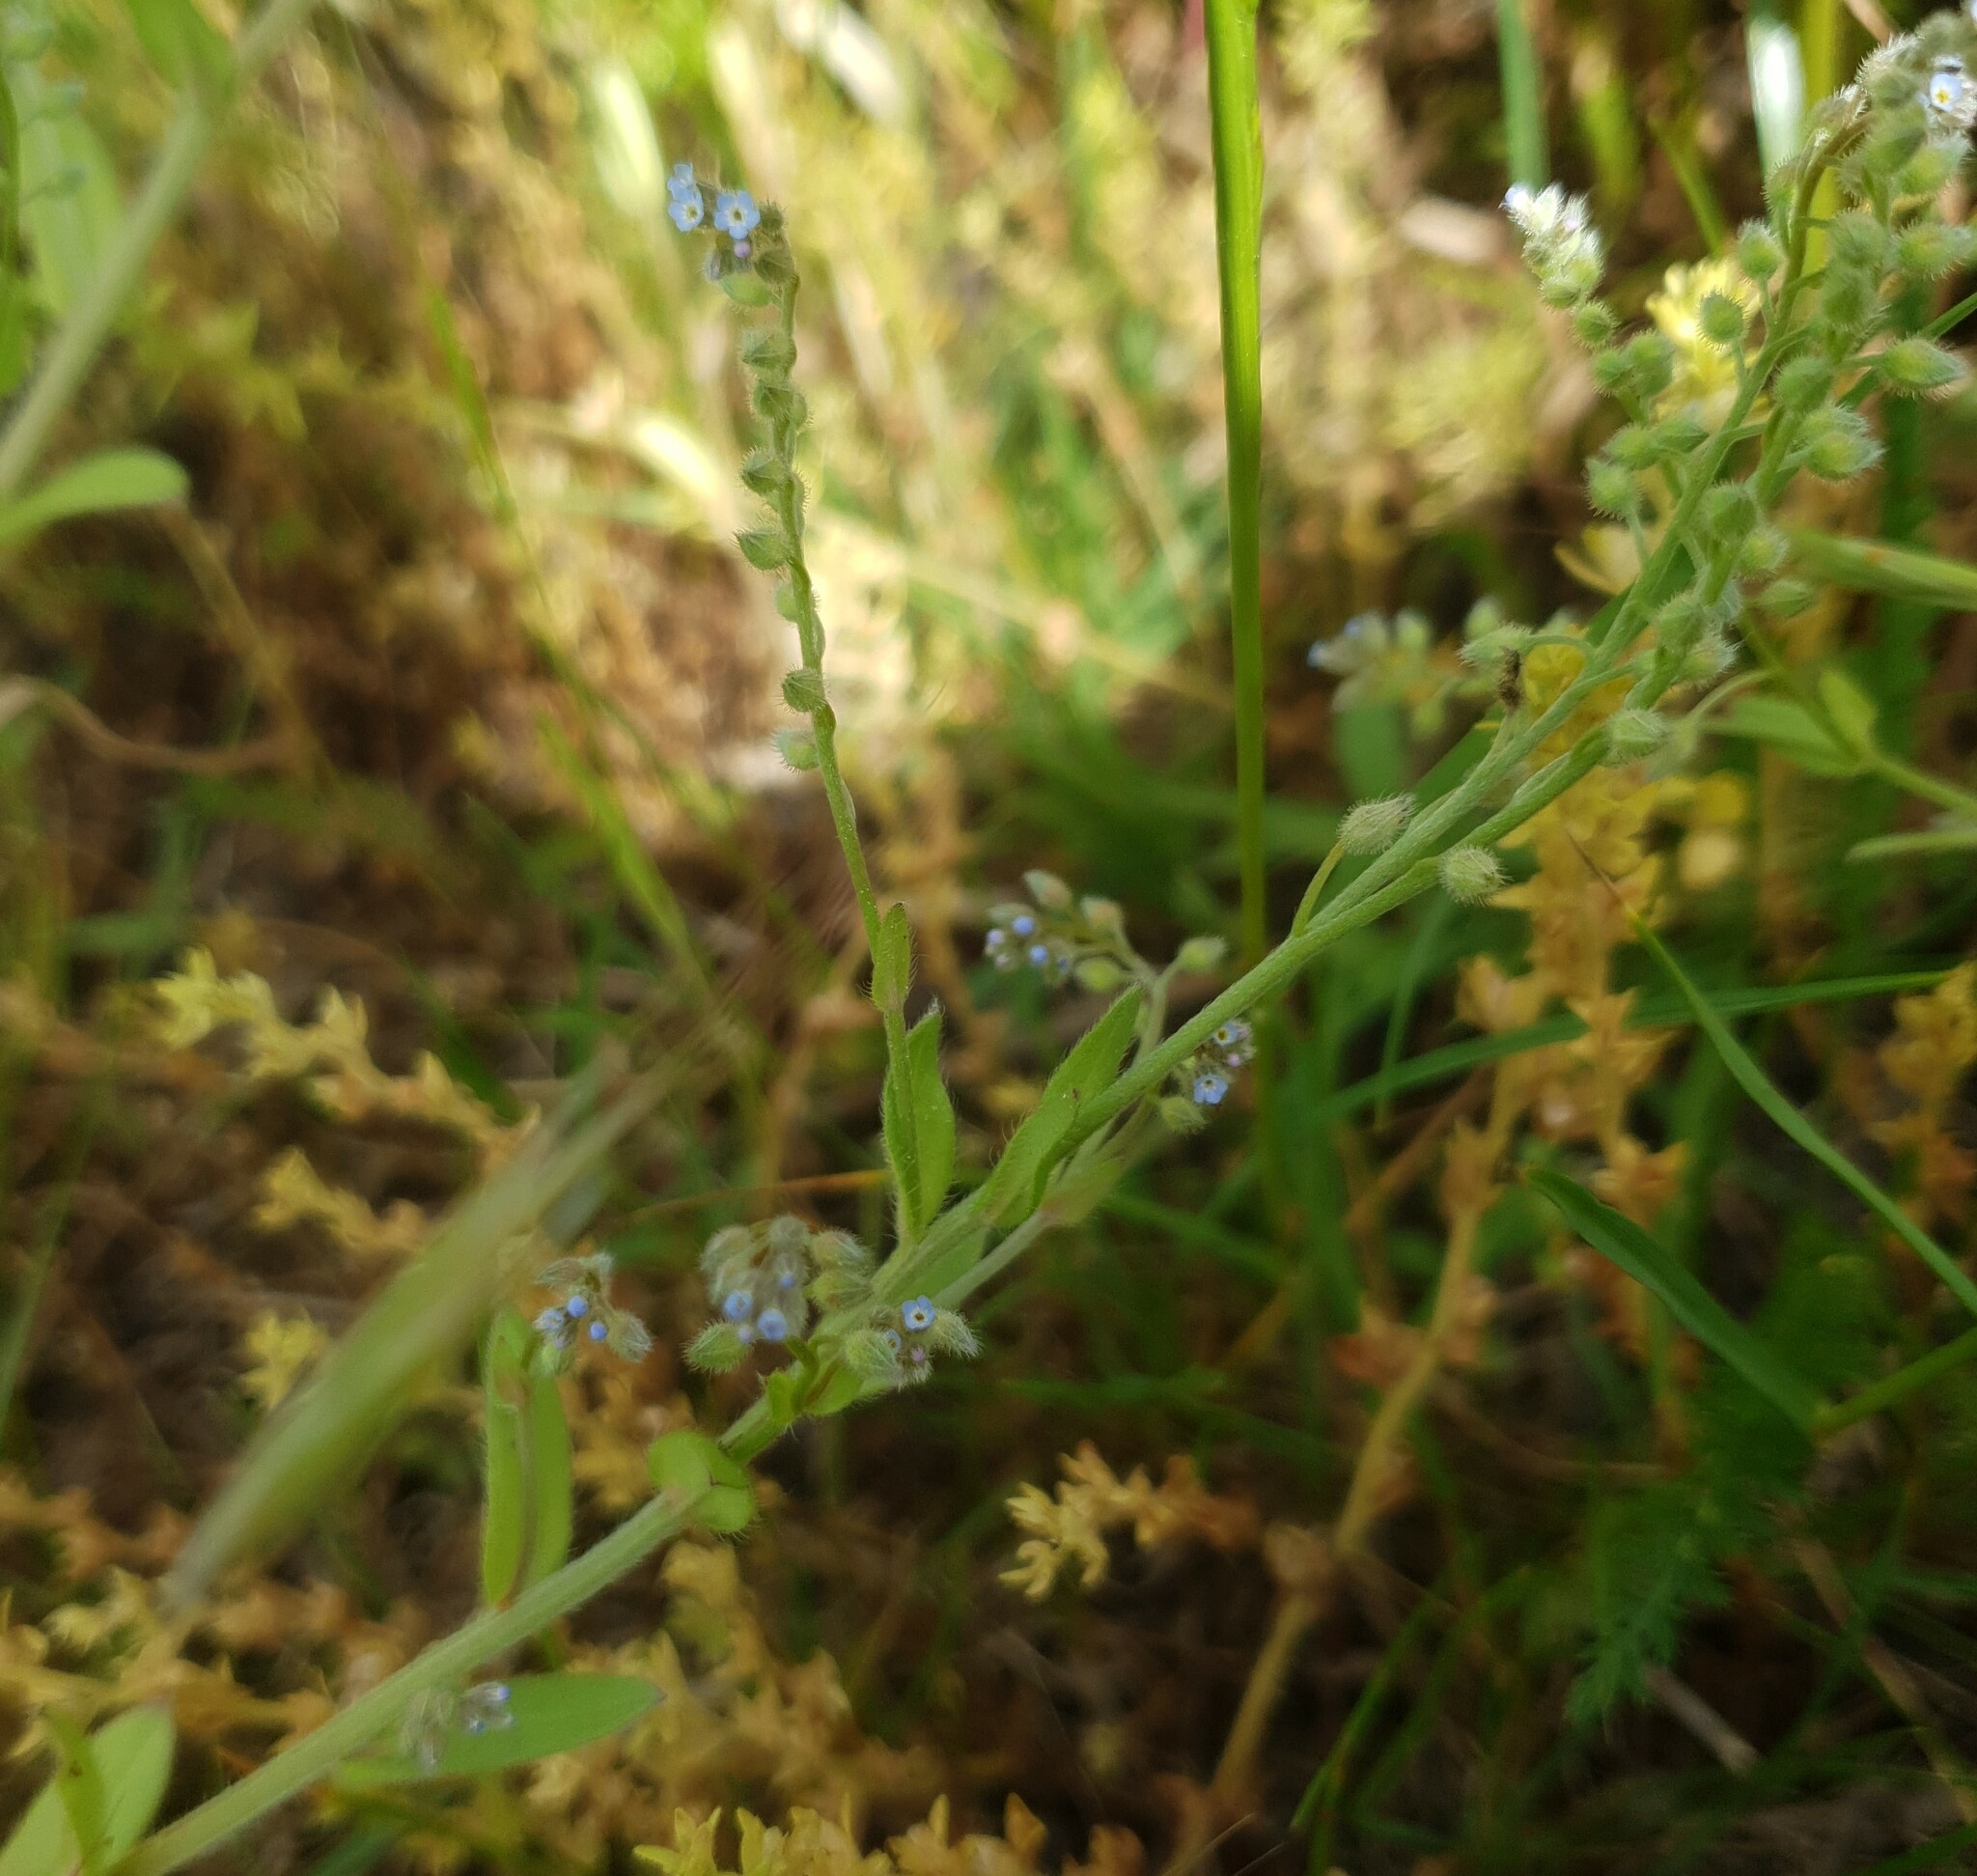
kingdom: Plantae
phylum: Tracheophyta
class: Magnoliopsida
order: Boraginales
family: Boraginaceae
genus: Myosotis
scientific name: Myosotis arvensis
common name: Field forget-me-not
